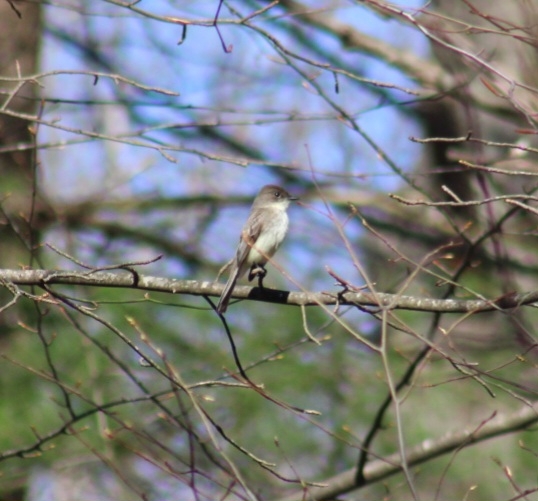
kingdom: Animalia
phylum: Chordata
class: Aves
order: Passeriformes
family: Tyrannidae
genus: Sayornis
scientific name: Sayornis phoebe
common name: Eastern phoebe
